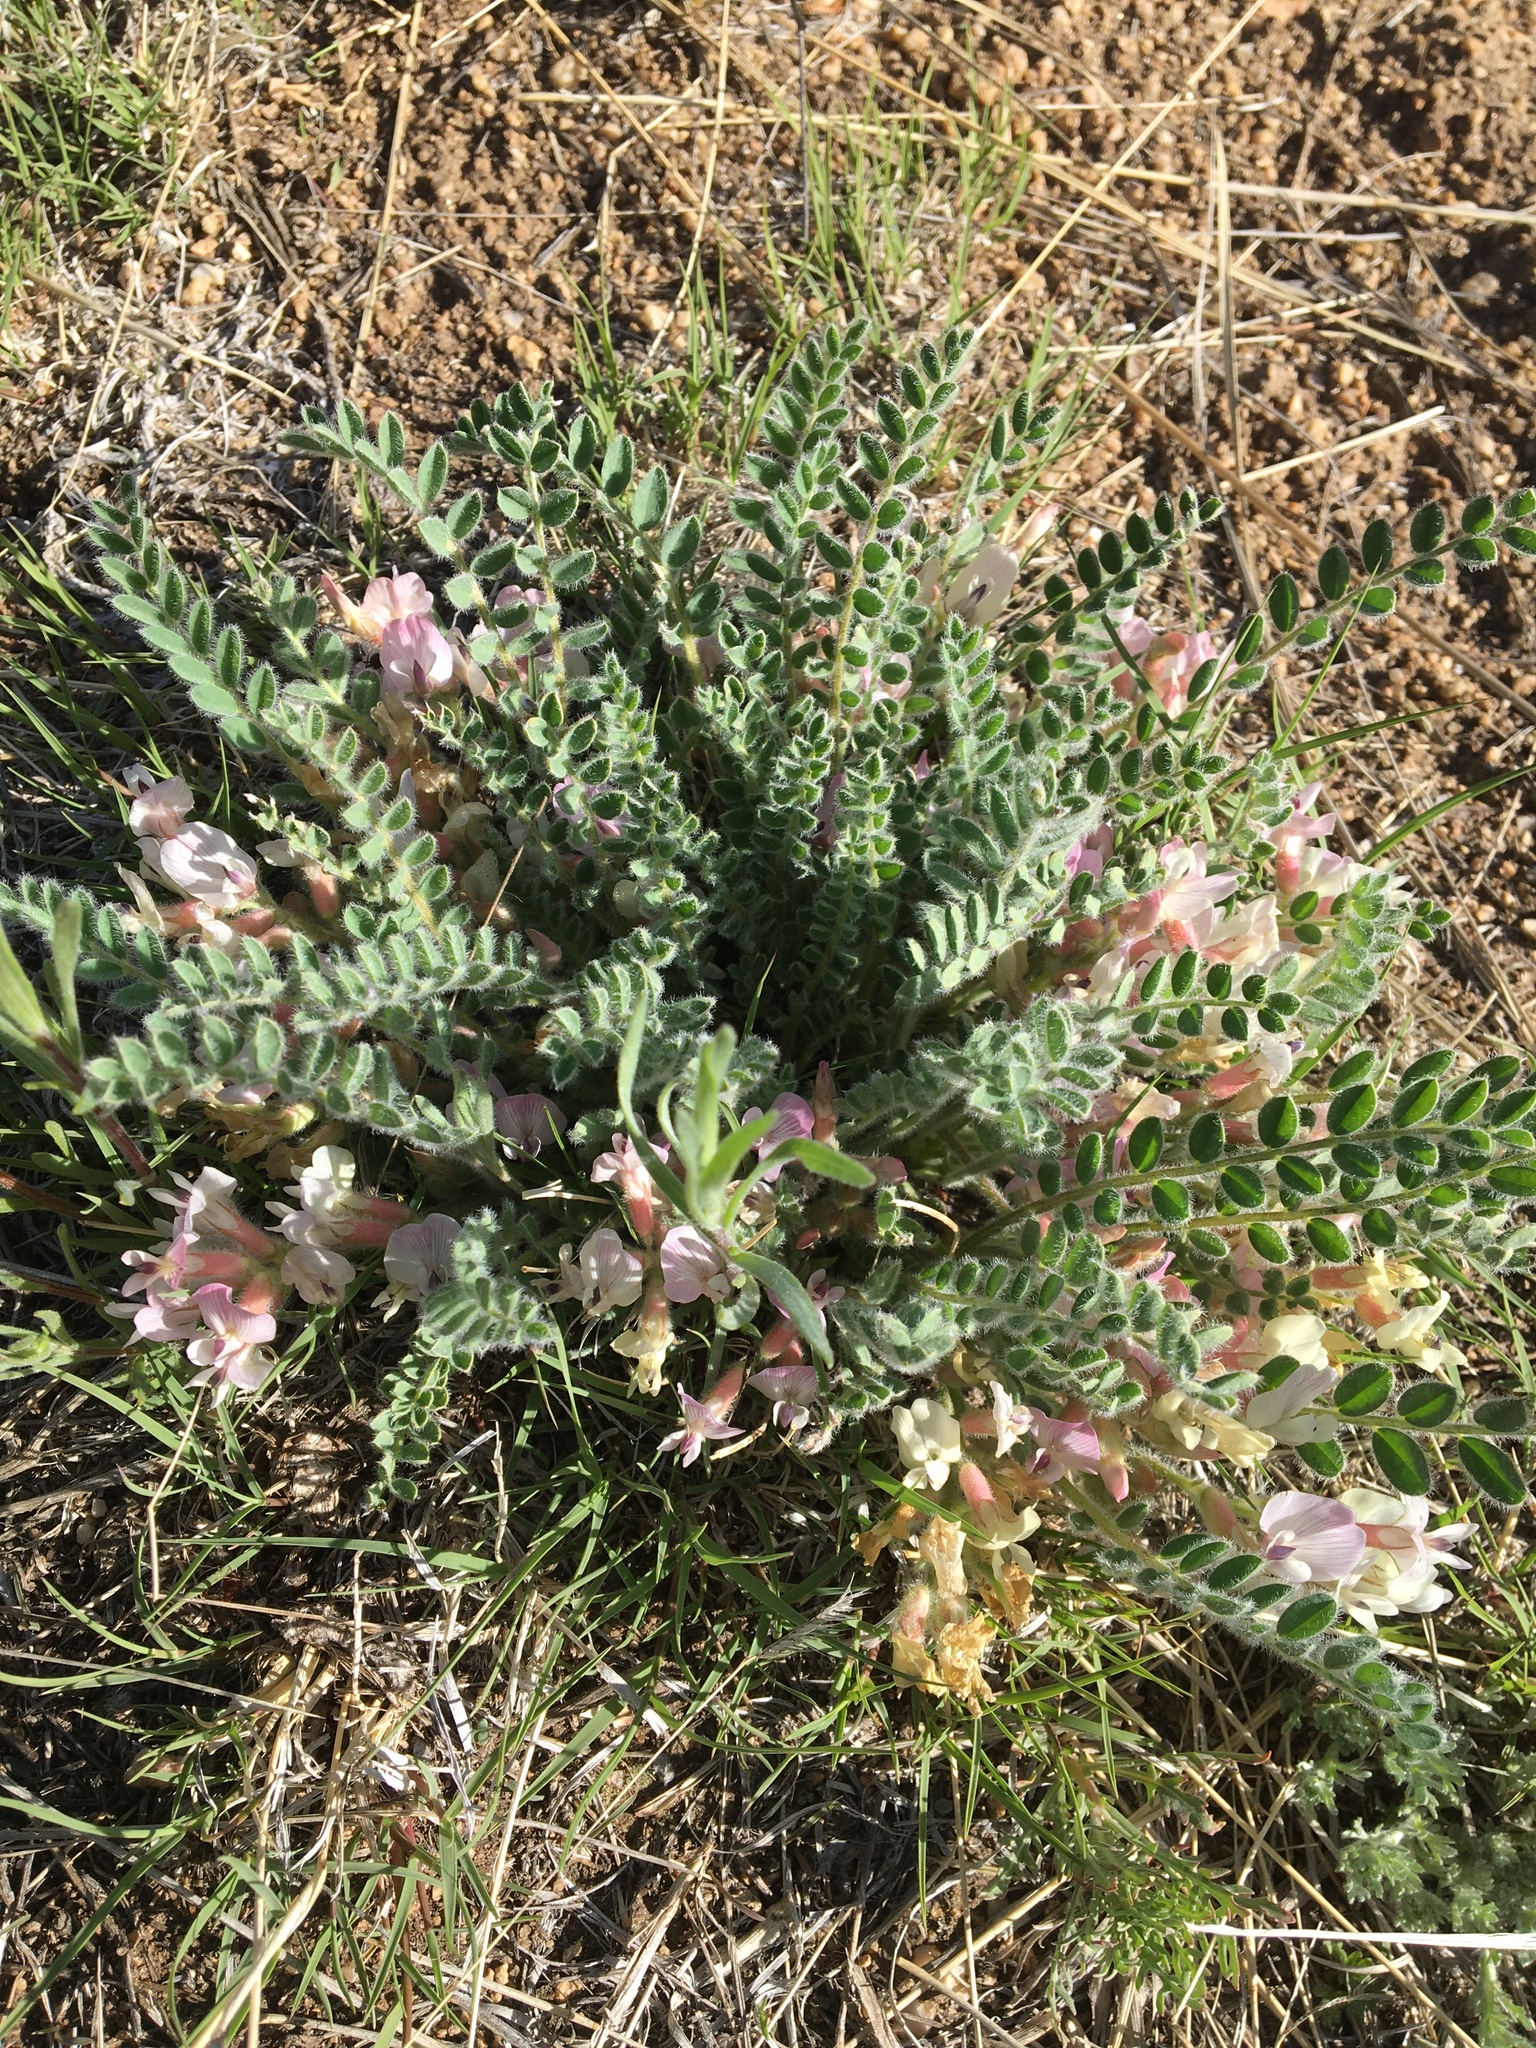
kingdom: Plantae
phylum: Tracheophyta
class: Magnoliopsida
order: Fabales
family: Fabaceae
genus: Astragalus
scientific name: Astragalus parryi
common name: Parry milk-vetch
